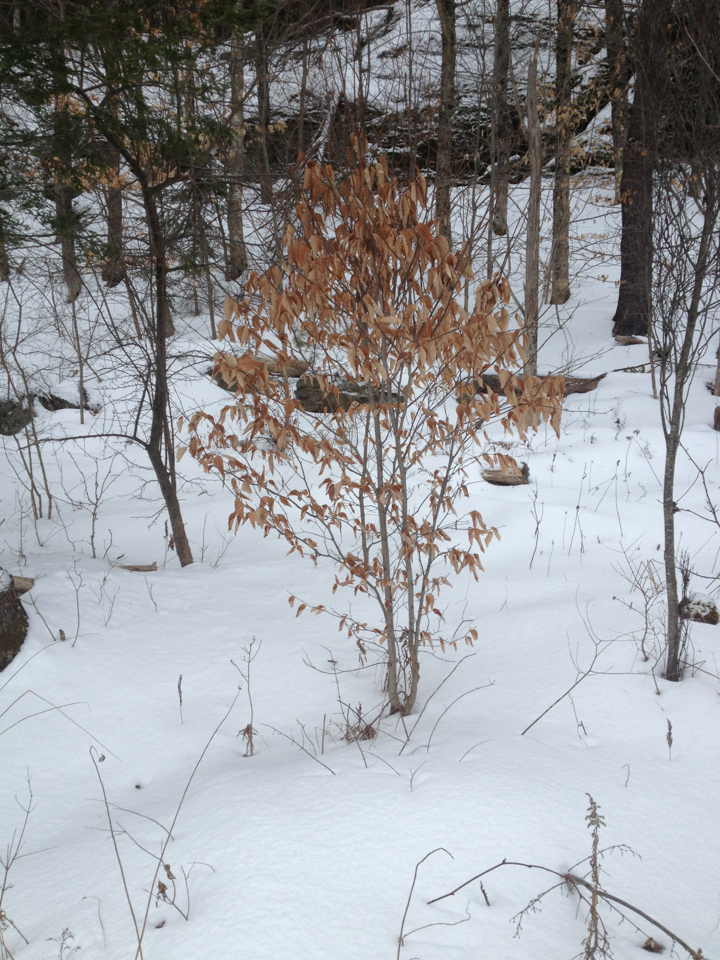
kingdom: Plantae
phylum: Tracheophyta
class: Magnoliopsida
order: Fagales
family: Fagaceae
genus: Fagus
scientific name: Fagus grandifolia
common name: American beech
